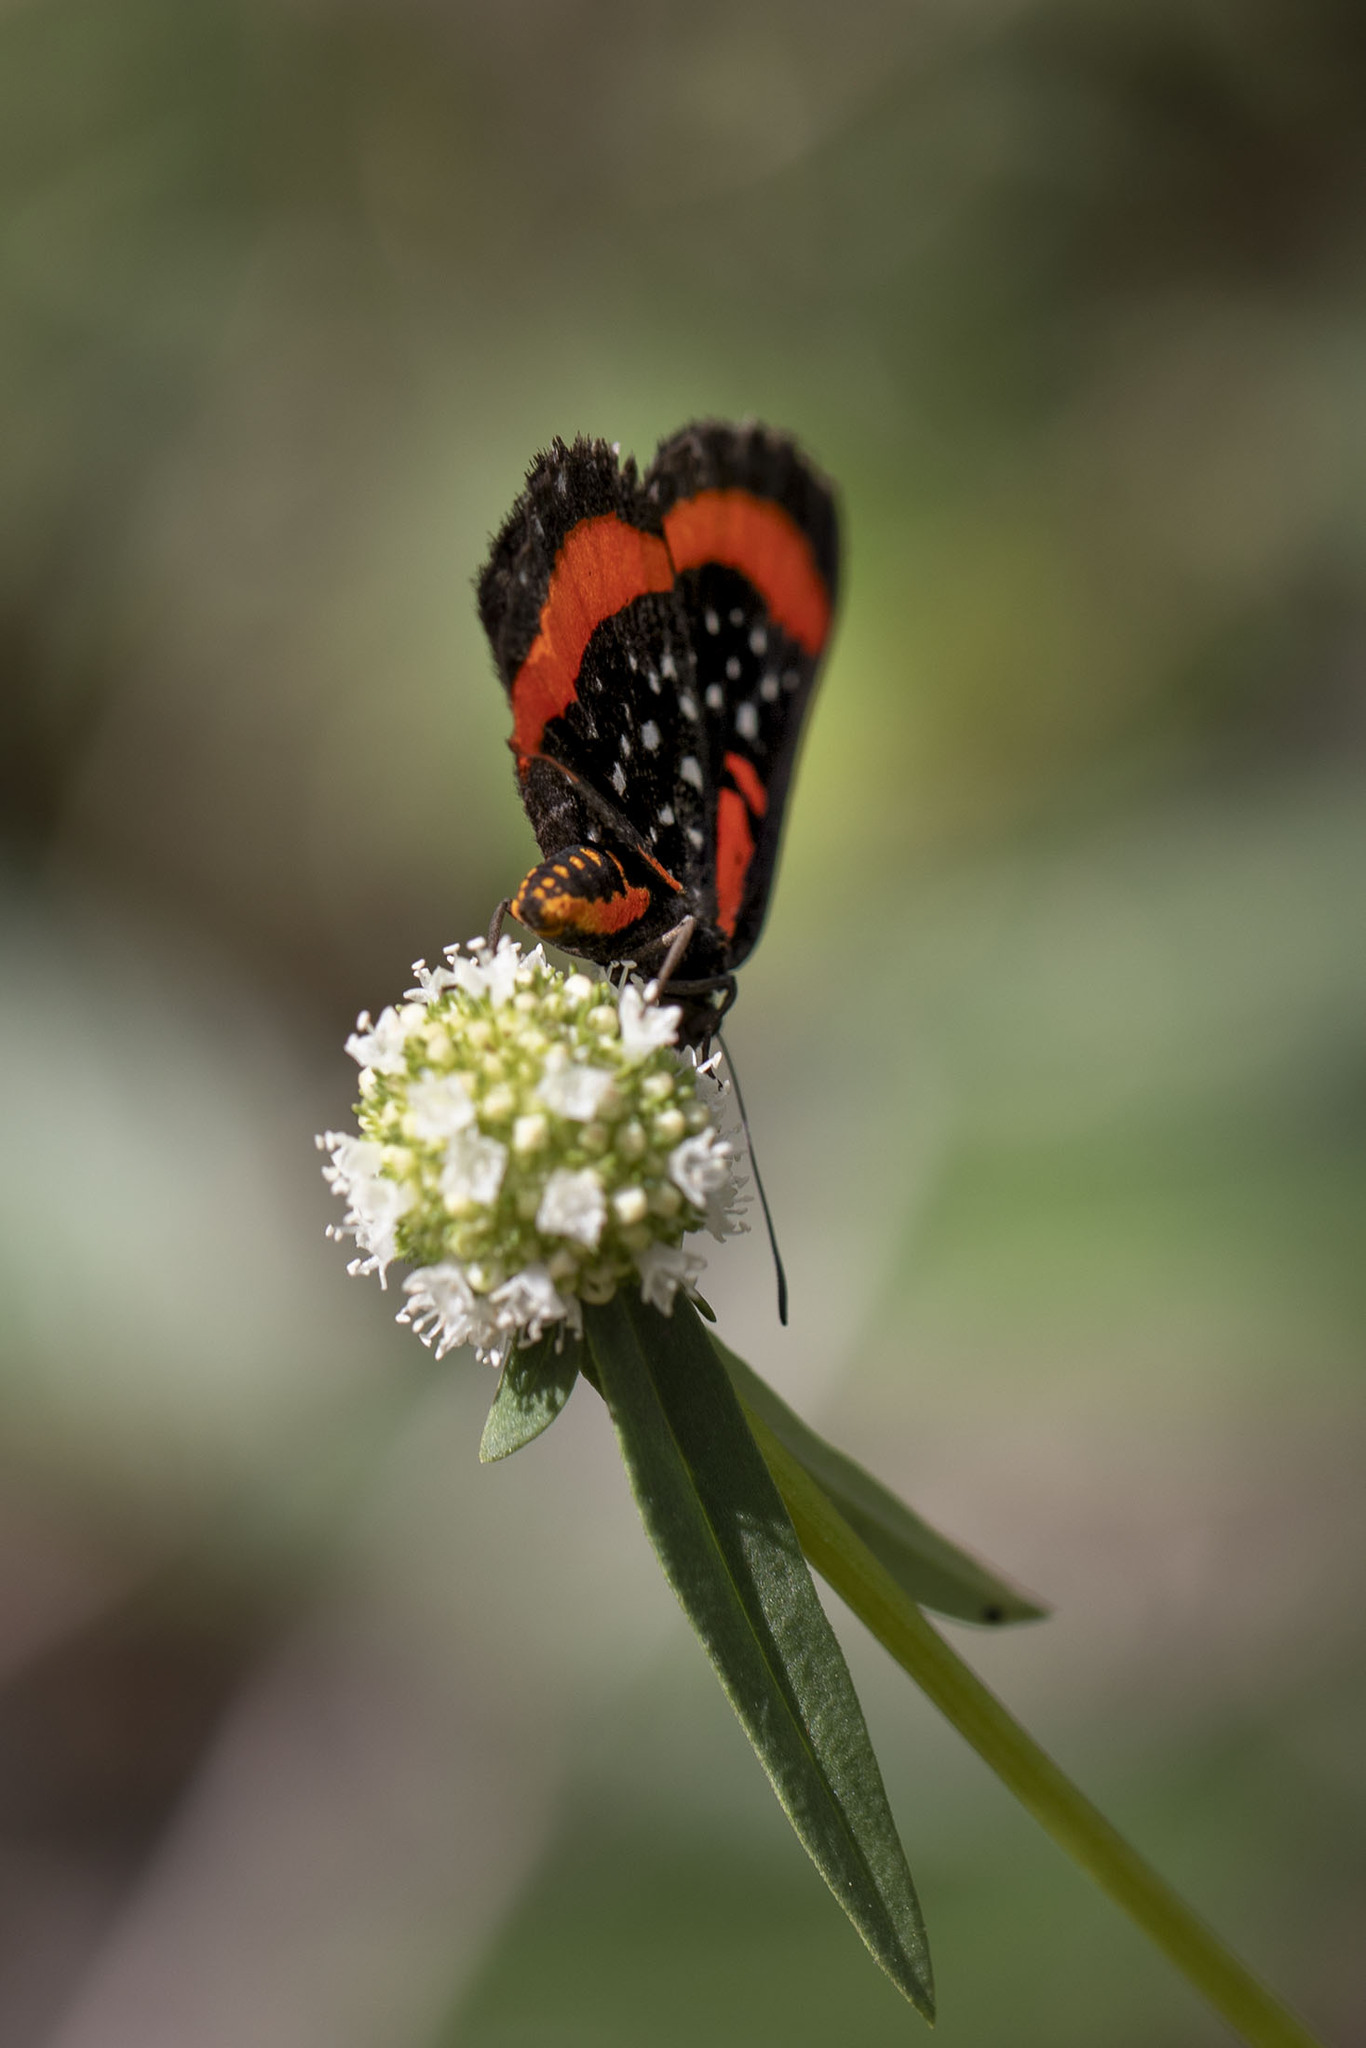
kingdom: Animalia
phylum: Arthropoda
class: Insecta
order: Lepidoptera
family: Riodinidae
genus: Amarynthis
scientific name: Amarynthis meneria
